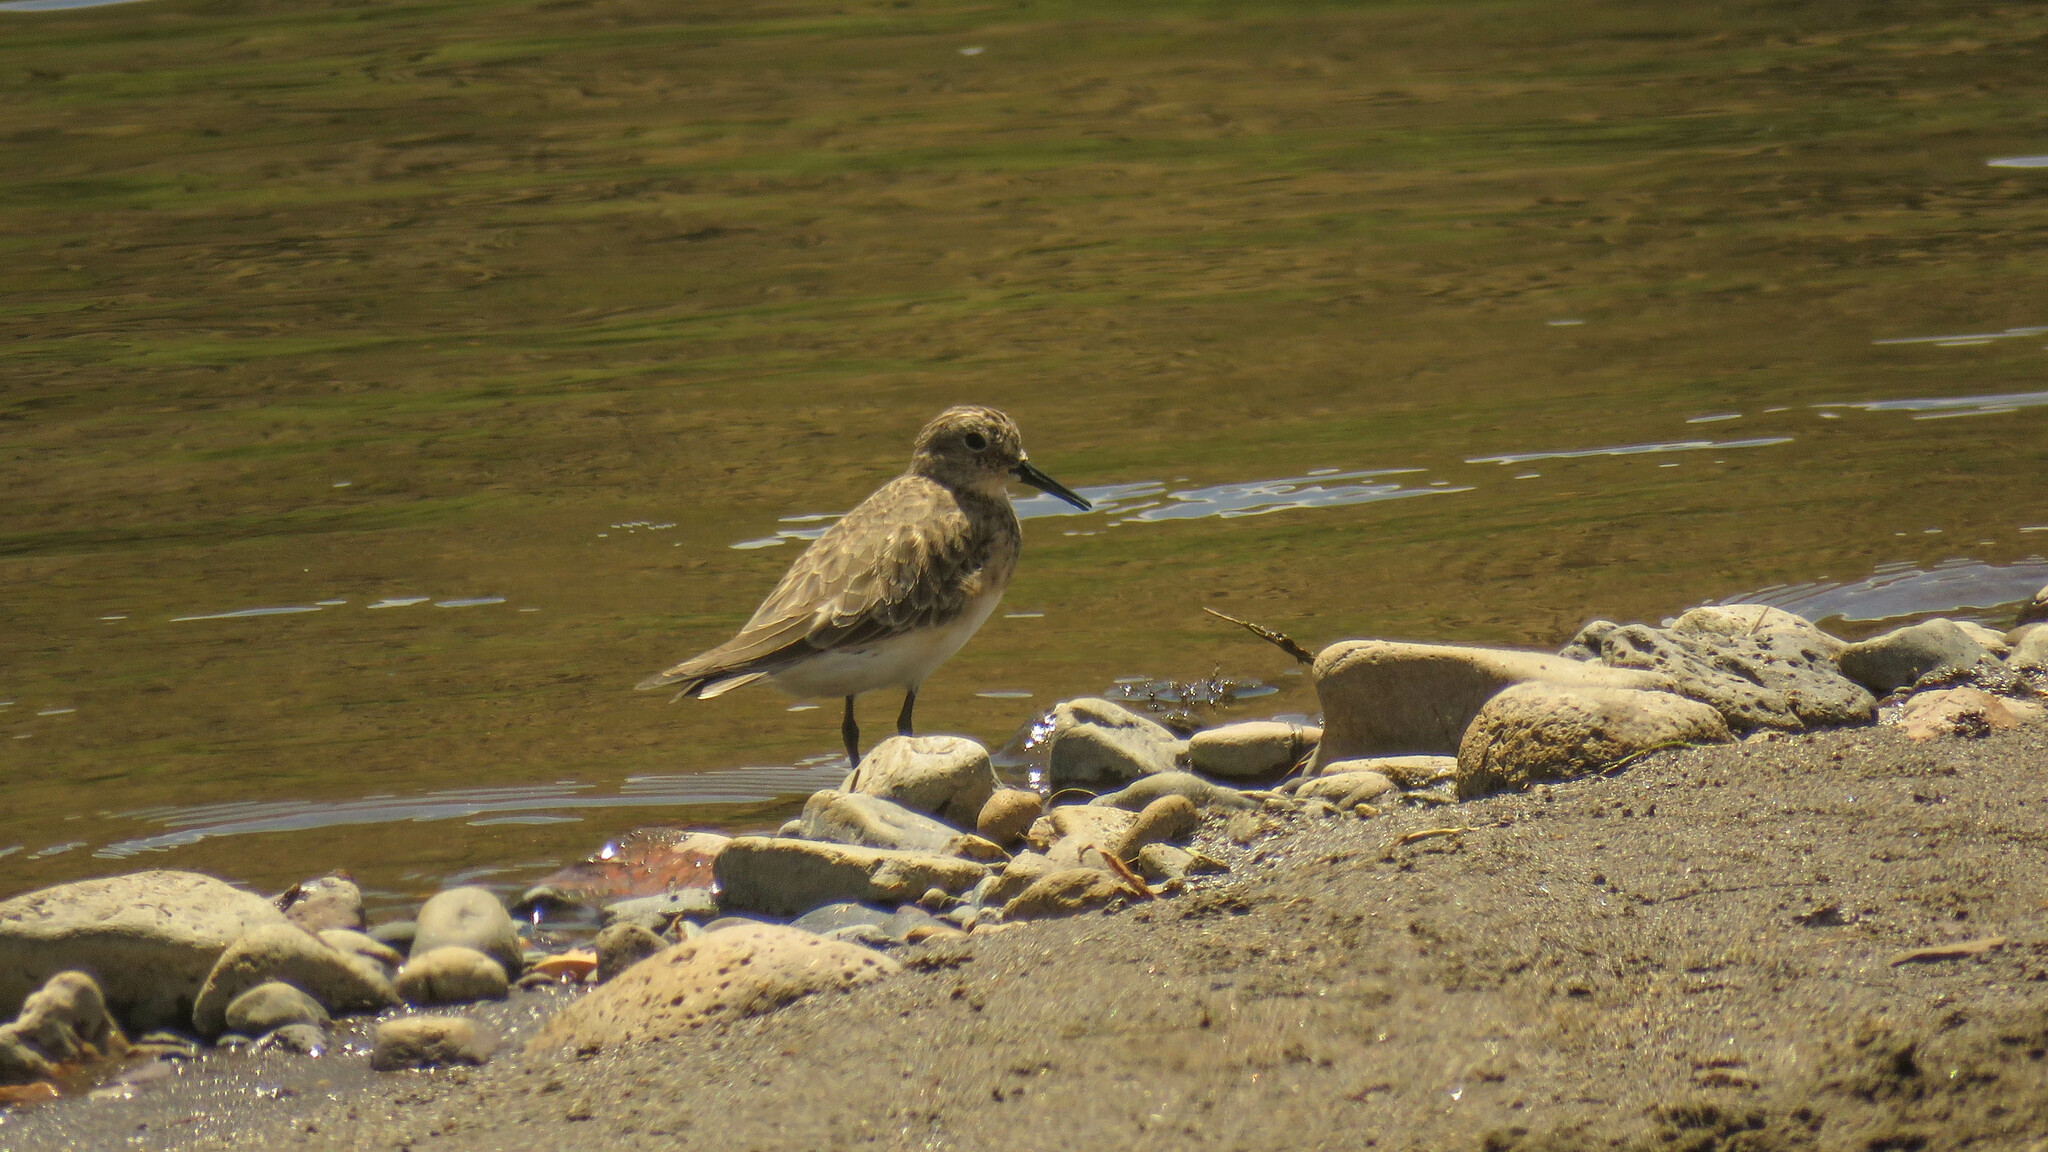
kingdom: Animalia
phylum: Chordata
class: Aves
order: Charadriiformes
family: Scolopacidae
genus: Calidris
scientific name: Calidris bairdii
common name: Baird's sandpiper
